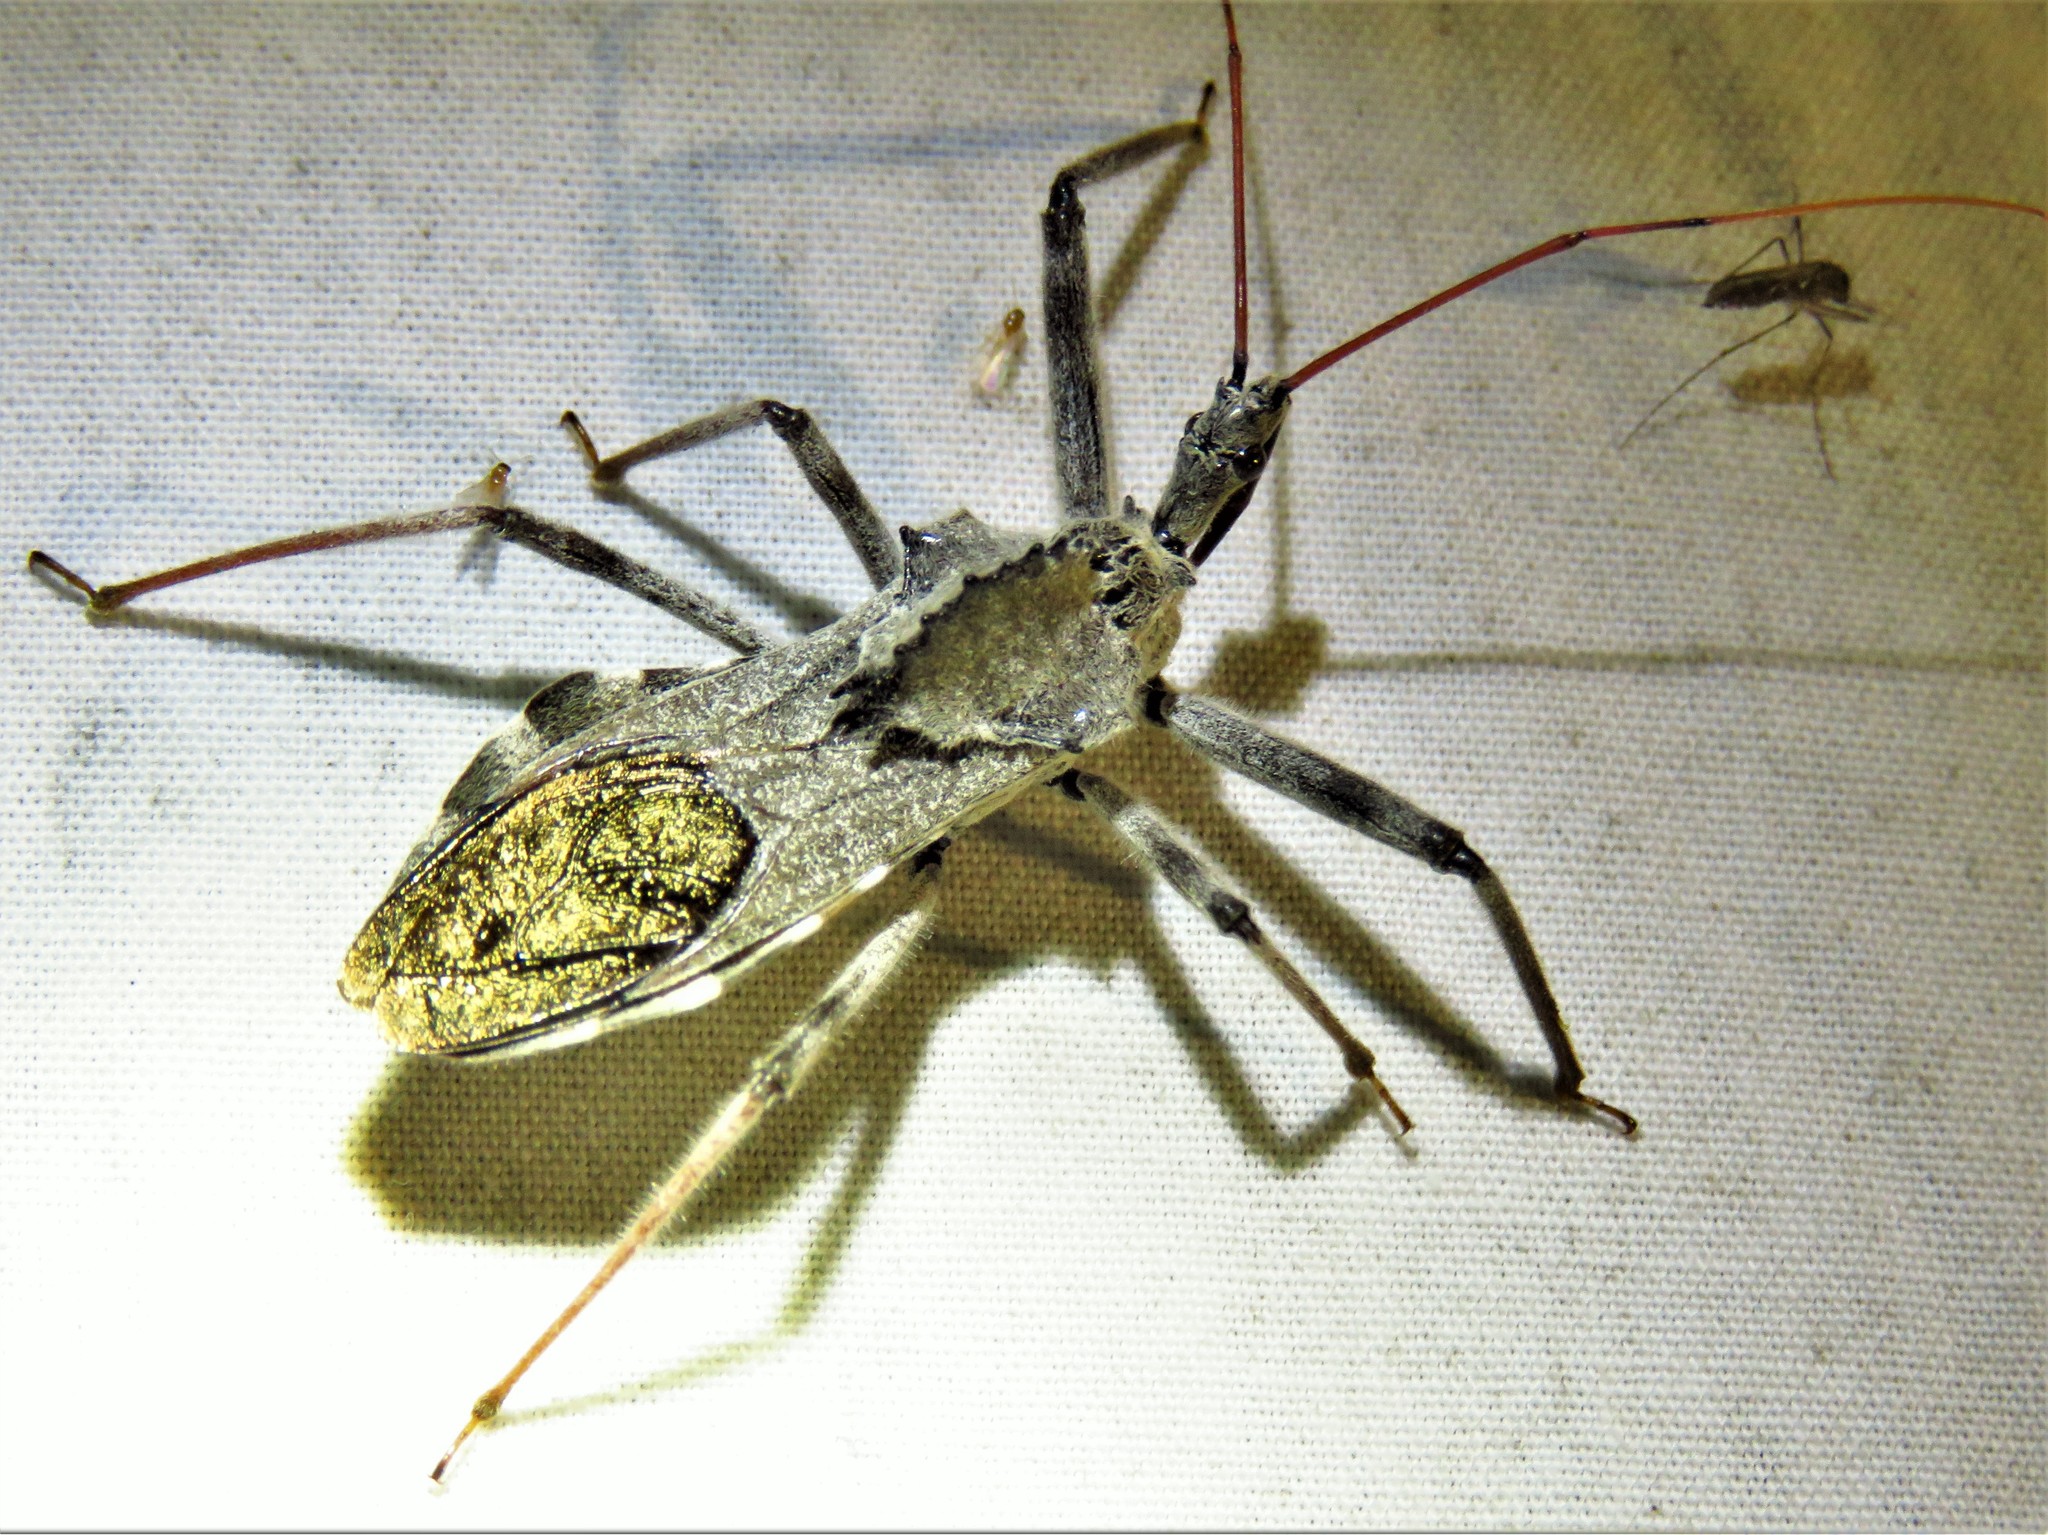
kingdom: Animalia
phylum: Arthropoda
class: Insecta
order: Hemiptera
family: Reduviidae
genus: Arilus
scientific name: Arilus cristatus
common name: North american wheel bug
